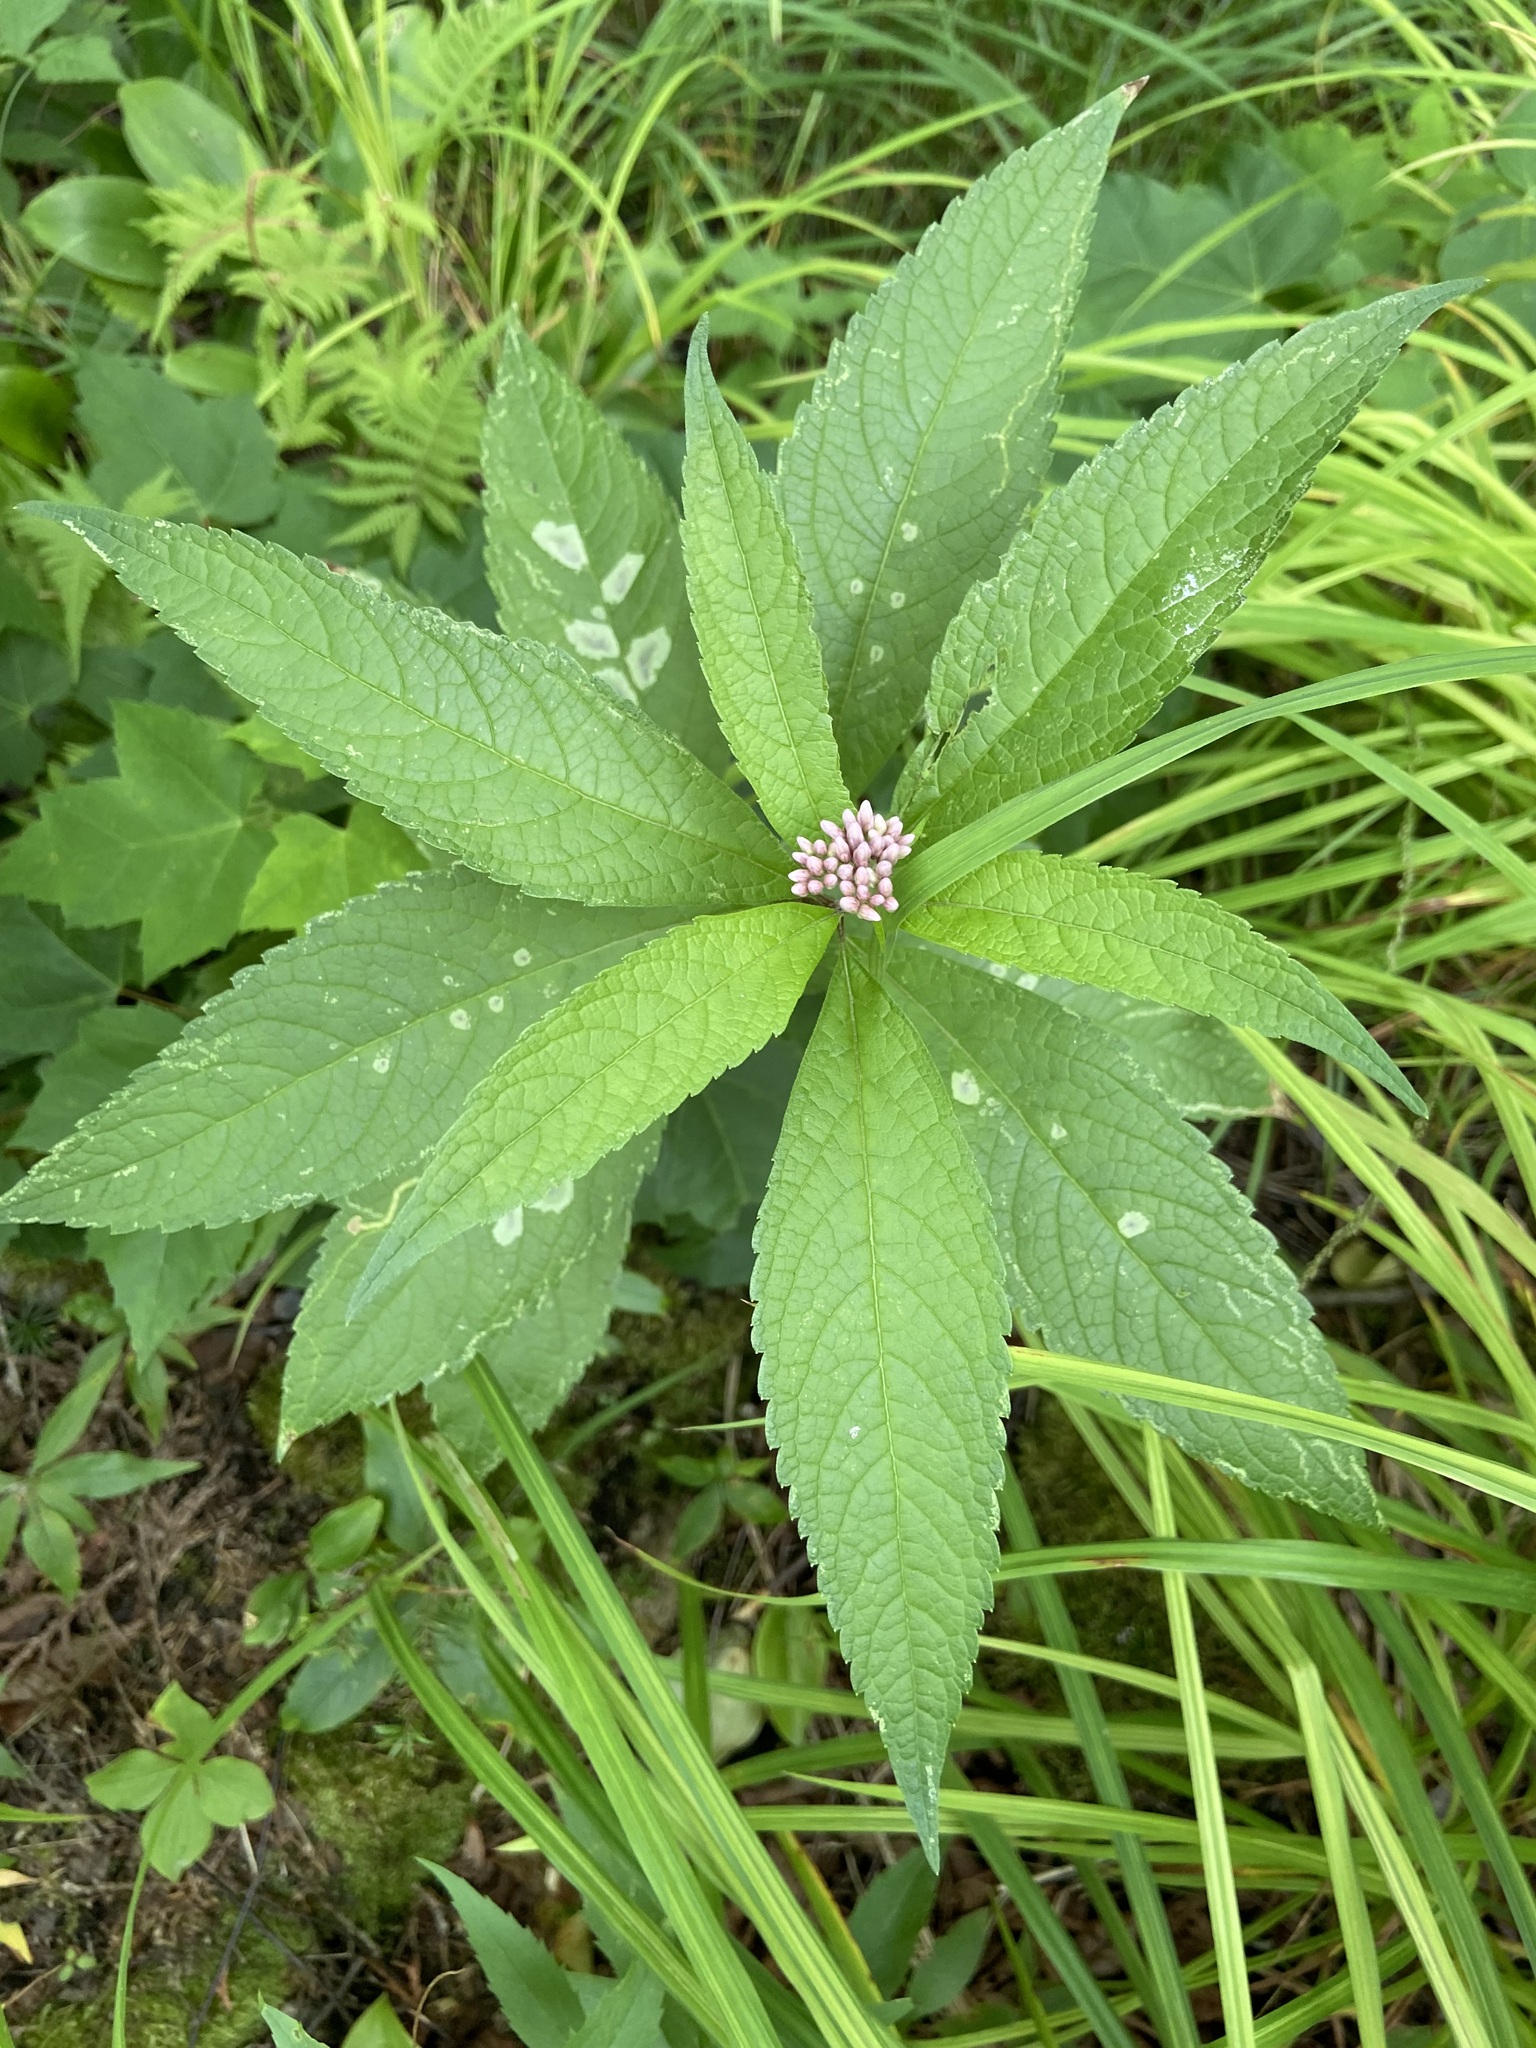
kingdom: Plantae
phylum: Tracheophyta
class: Magnoliopsida
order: Asterales
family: Asteraceae
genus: Eutrochium
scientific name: Eutrochium maculatum
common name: Spotted joe pye weed
